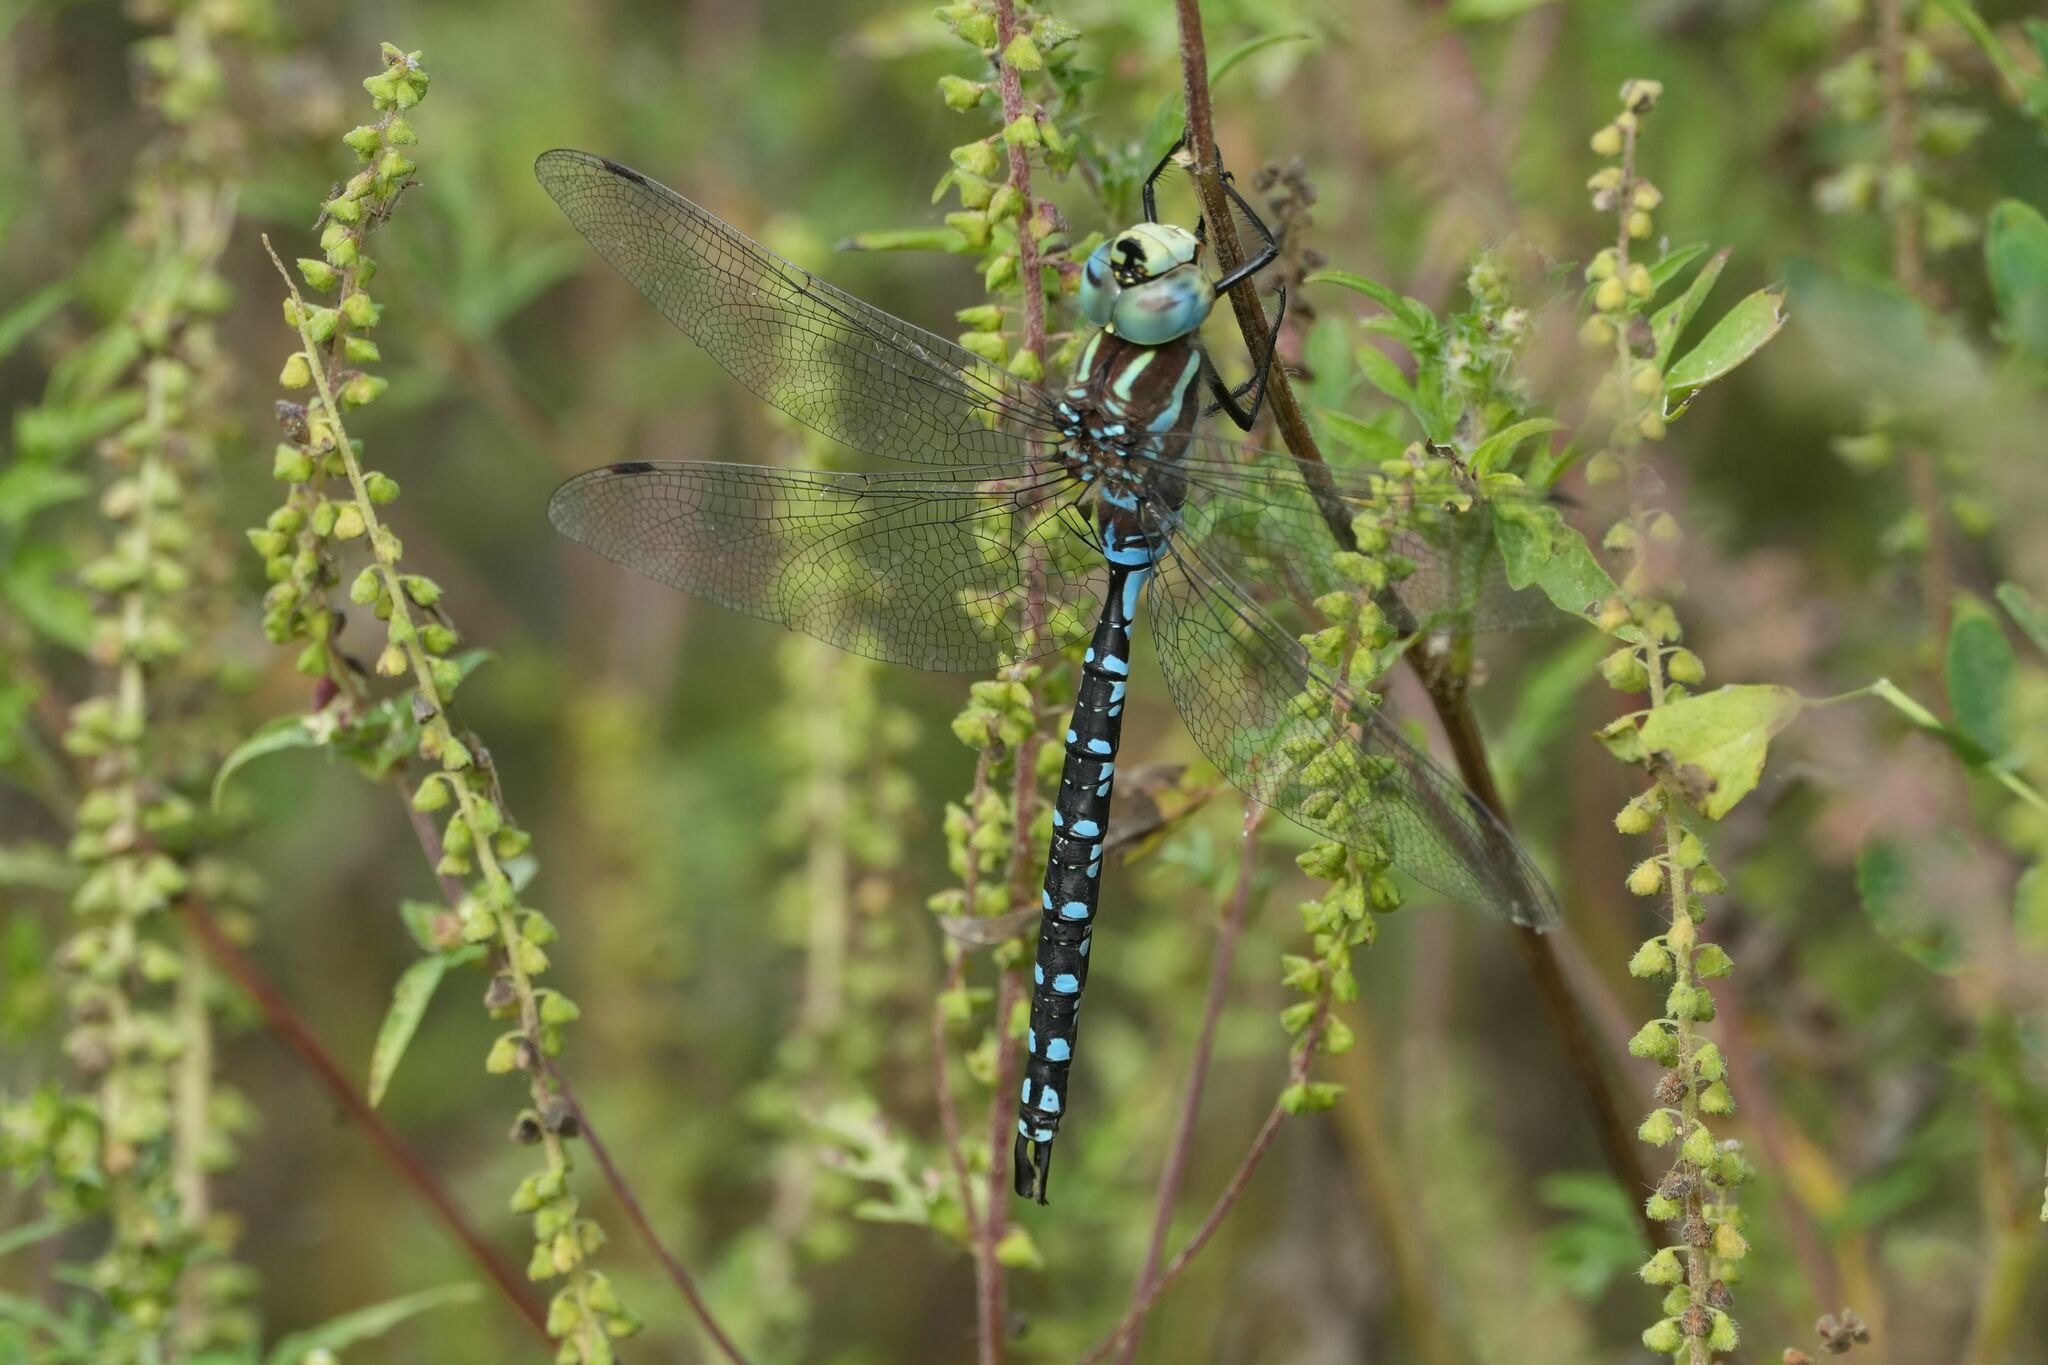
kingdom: Animalia
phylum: Arthropoda
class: Insecta
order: Odonata
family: Aeshnidae
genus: Aeshna
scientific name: Aeshna constricta
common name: Lance-tipped darner
